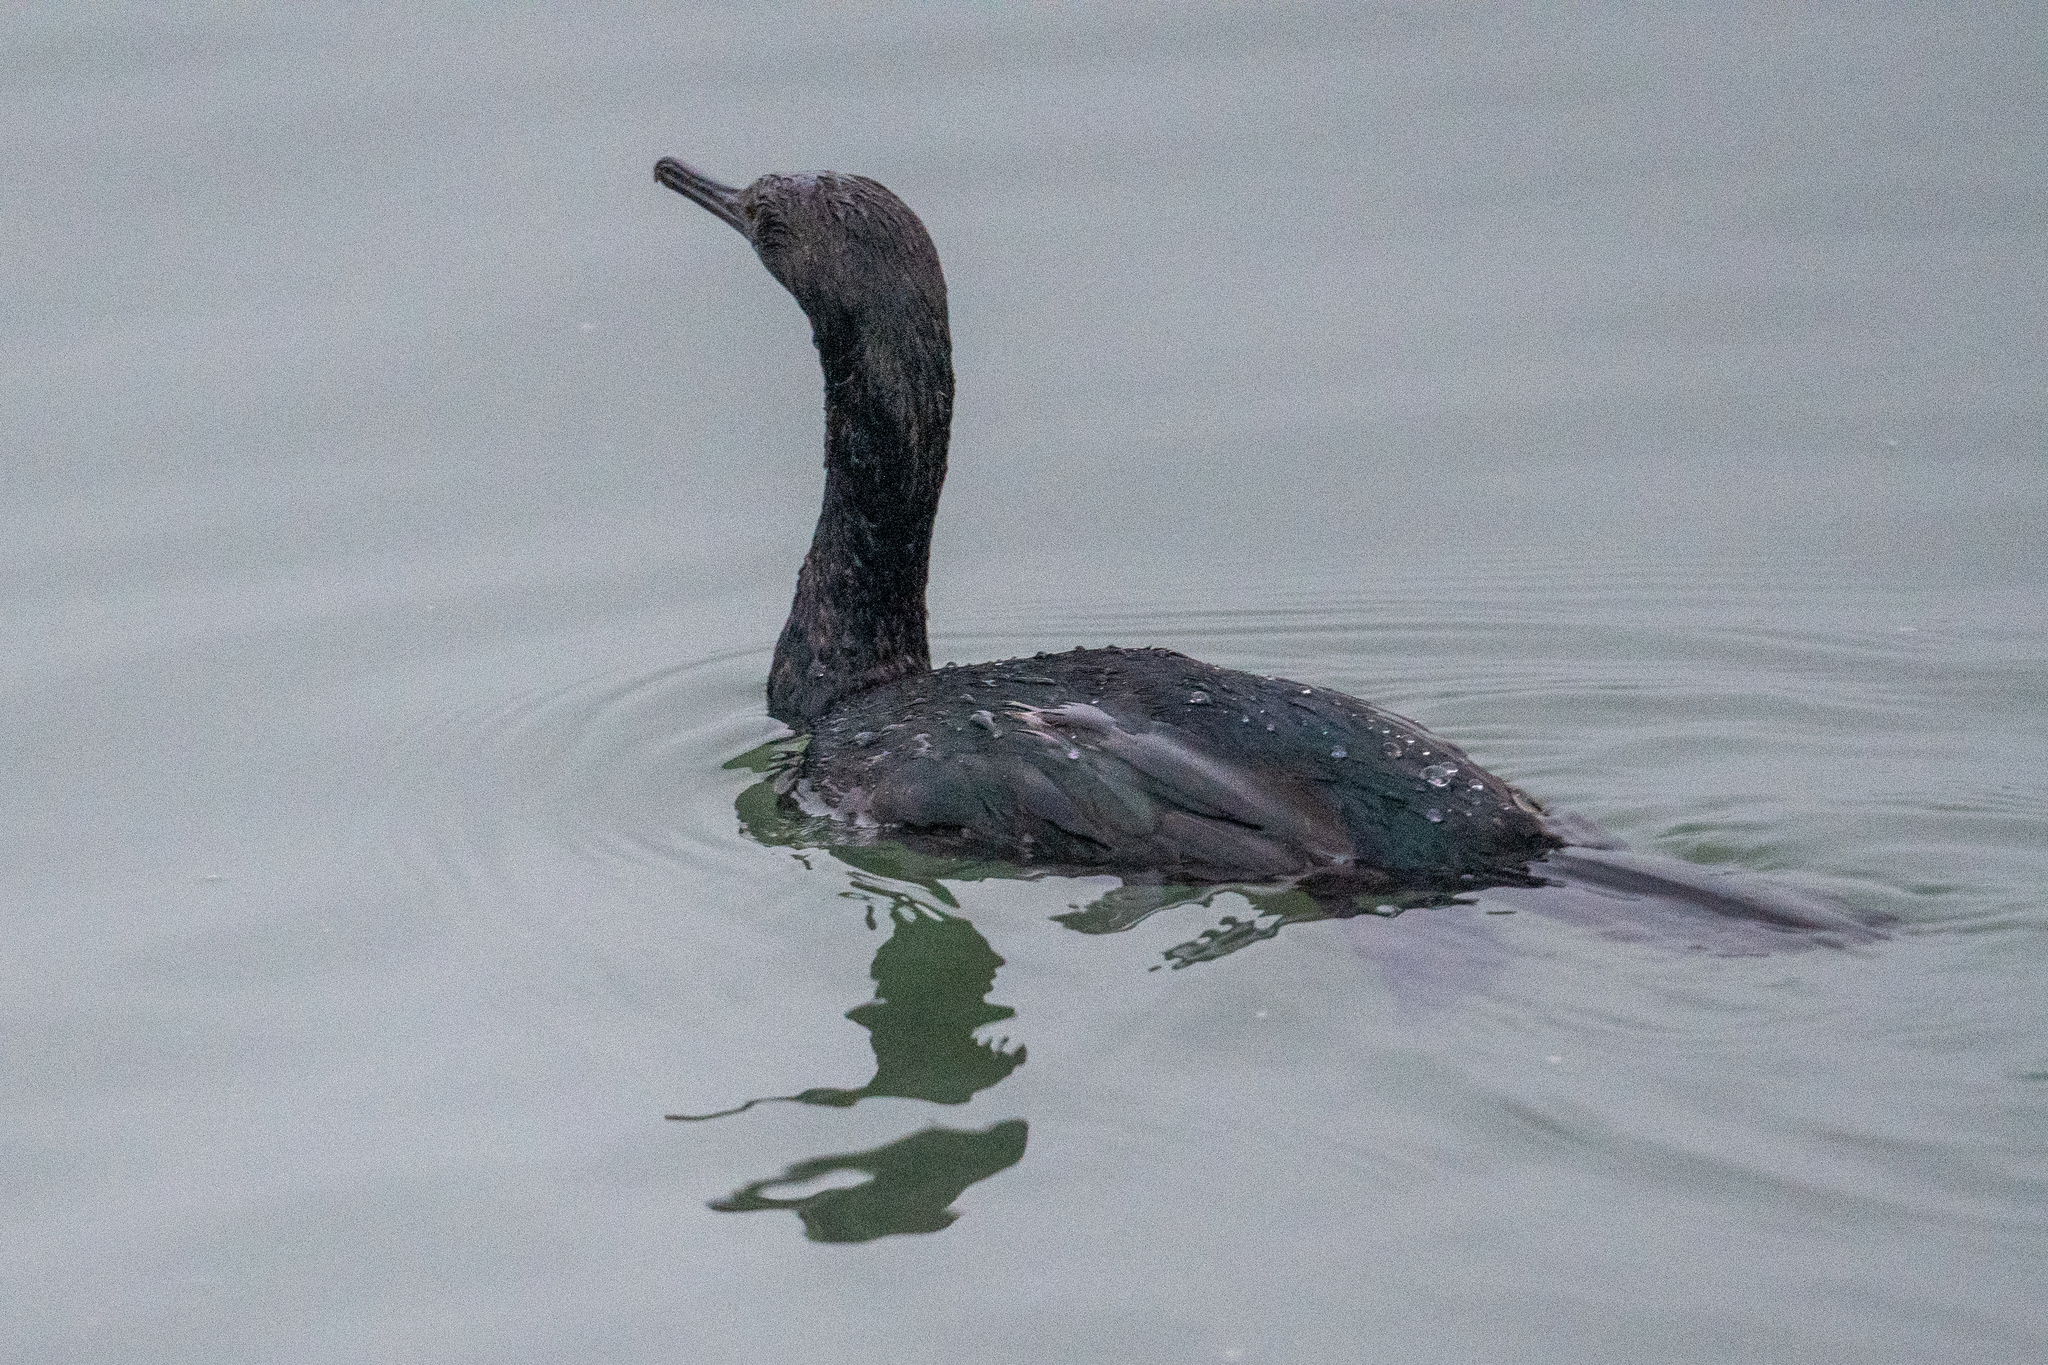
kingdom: Animalia
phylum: Chordata
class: Aves
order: Suliformes
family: Phalacrocoracidae
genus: Phalacrocorax
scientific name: Phalacrocorax pelagicus
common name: Pelagic cormorant
